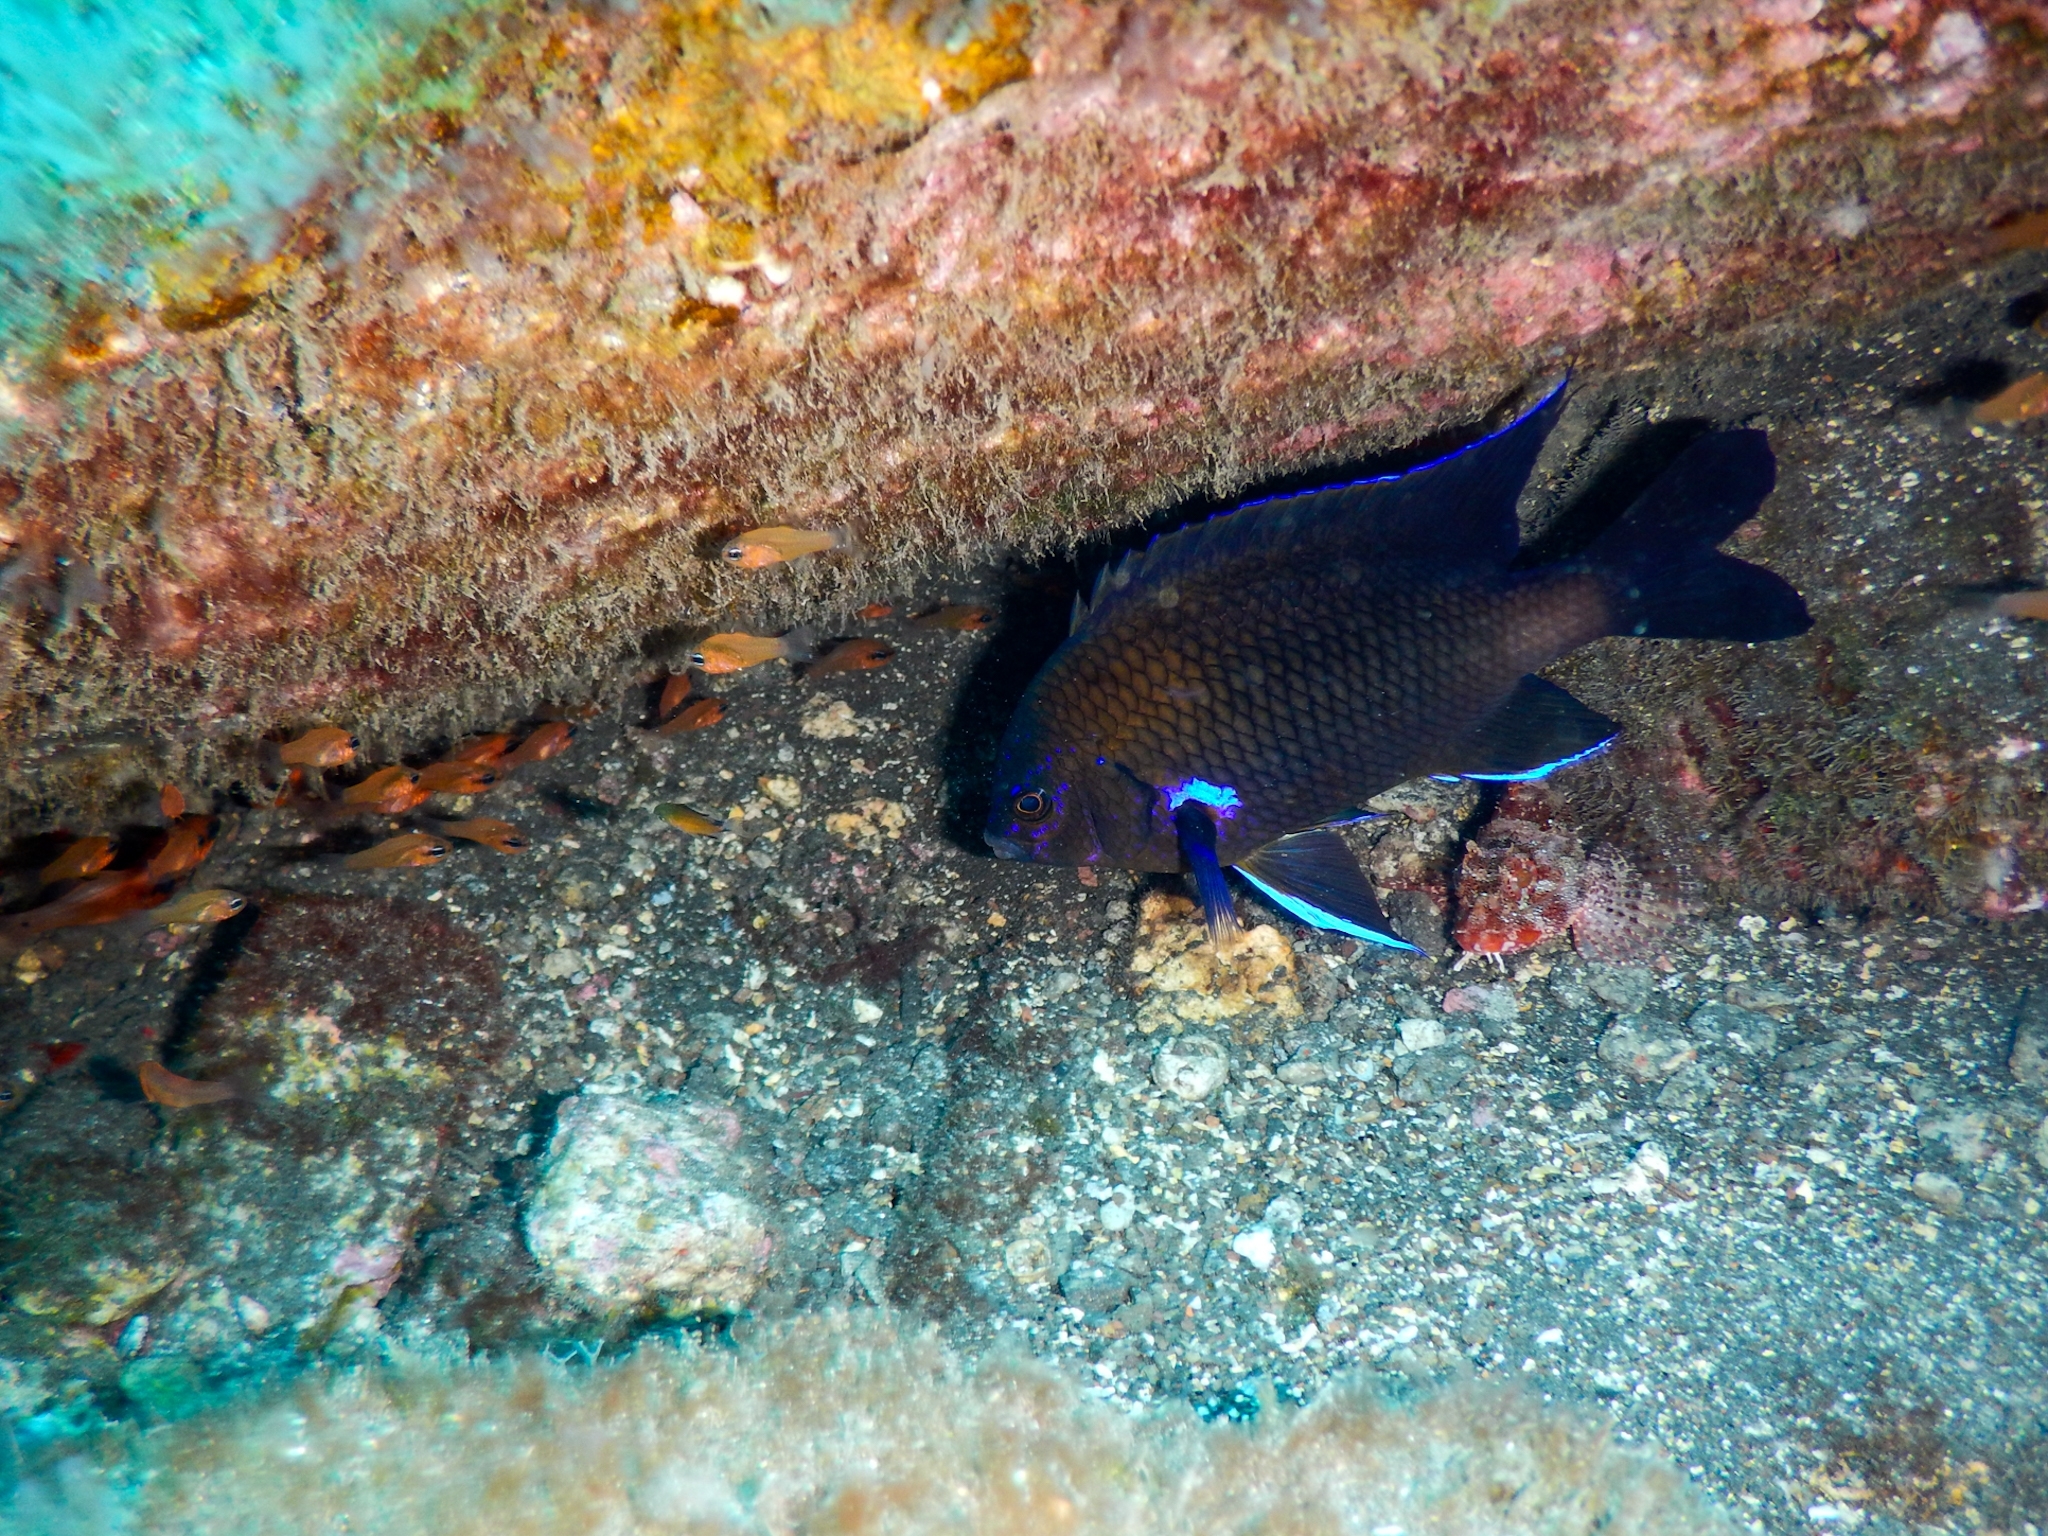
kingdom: Animalia
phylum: Chordata
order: Perciformes
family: Pomacentridae
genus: Similiparma
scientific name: Similiparma lurida
